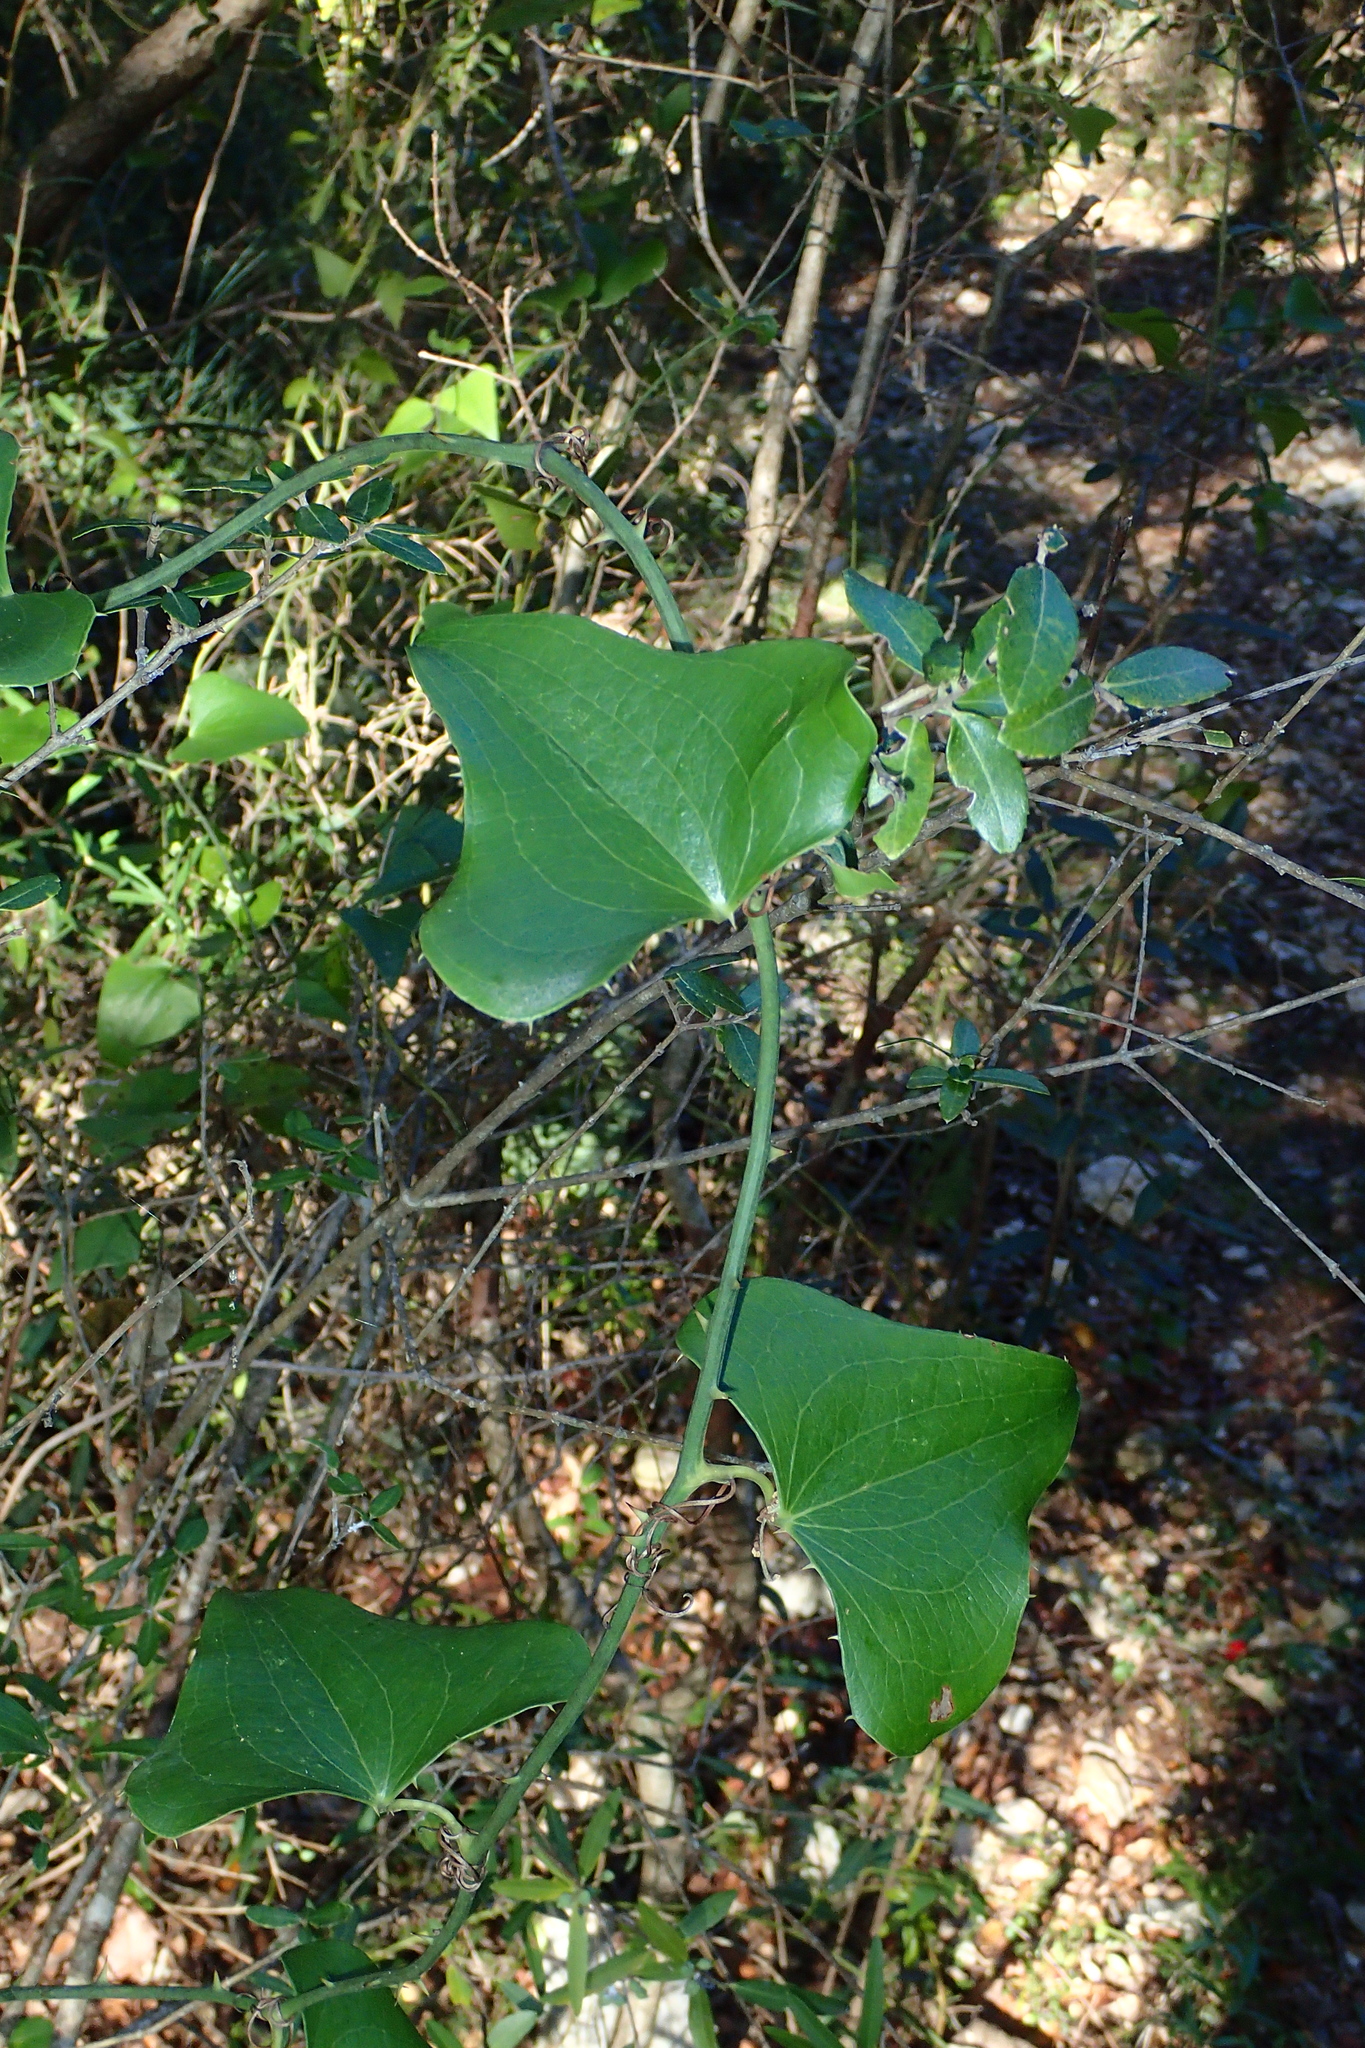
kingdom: Plantae
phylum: Tracheophyta
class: Liliopsida
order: Liliales
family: Smilacaceae
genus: Smilax
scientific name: Smilax aspera
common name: Common smilax
